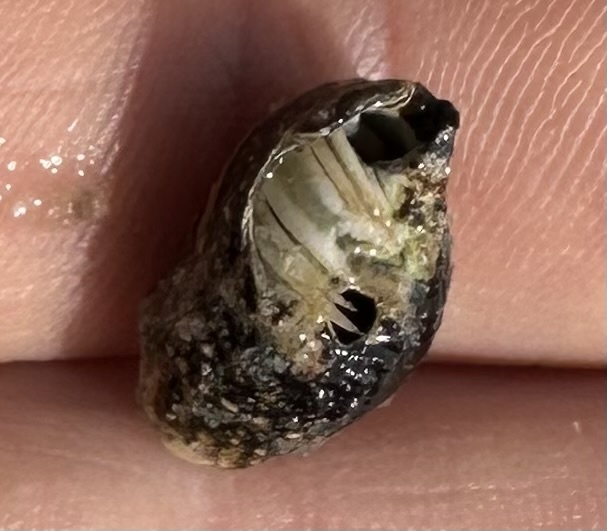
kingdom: Animalia
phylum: Arthropoda
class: Malacostraca
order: Decapoda
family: Paguridae
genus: Pagurus
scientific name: Pagurus longicarpus
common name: Long-armed hermit crab
